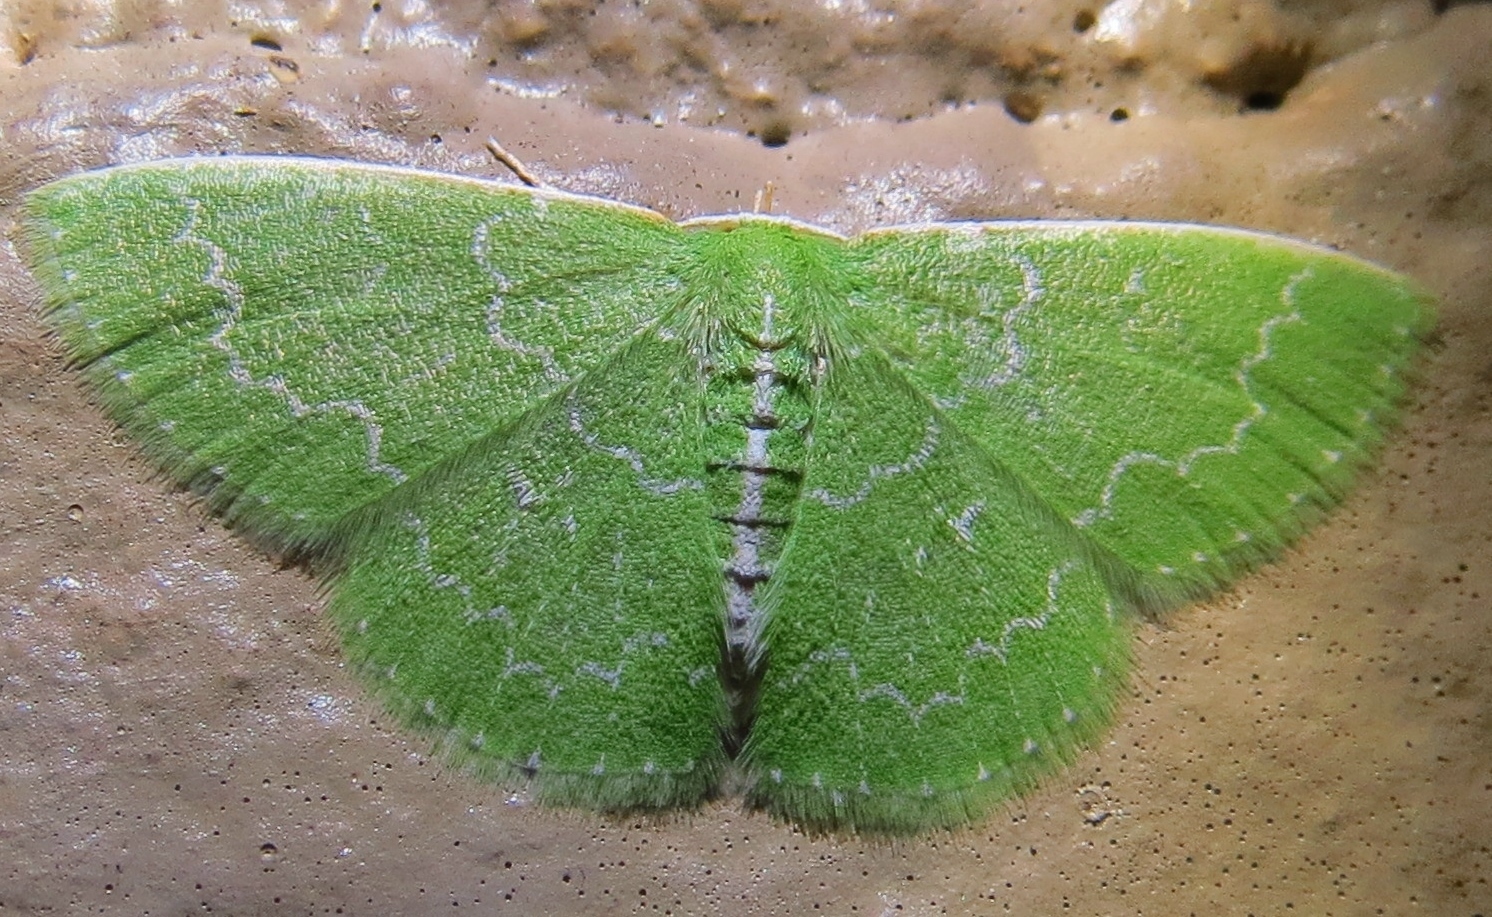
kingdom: Animalia
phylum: Arthropoda
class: Insecta
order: Lepidoptera
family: Geometridae
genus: Synchlora
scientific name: Synchlora frondaria
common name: Southern emerald
